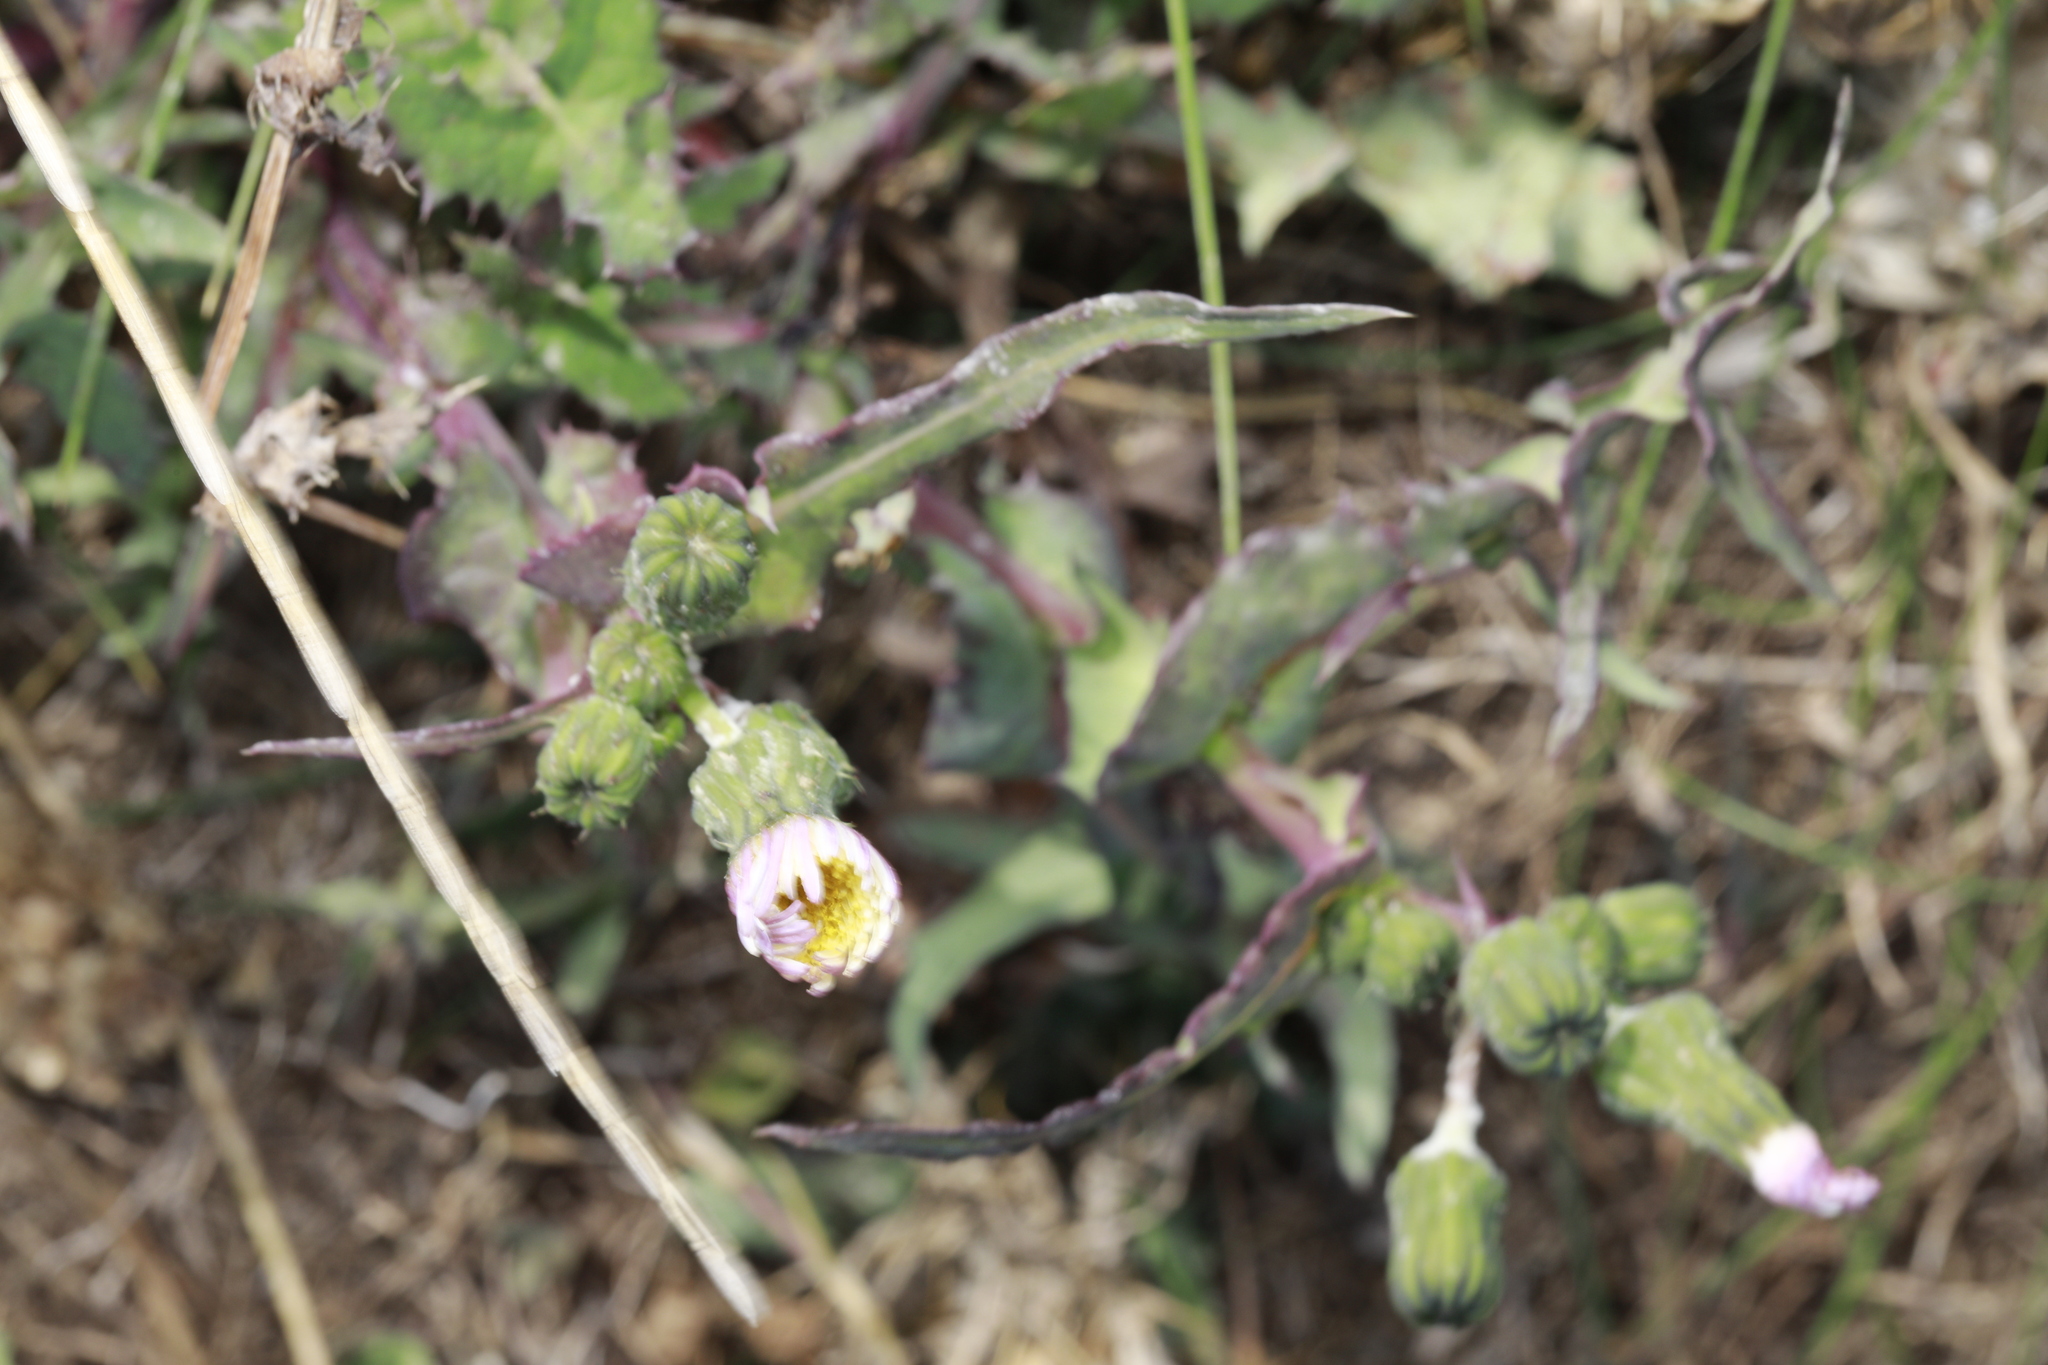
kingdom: Plantae
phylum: Tracheophyta
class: Magnoliopsida
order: Asterales
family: Asteraceae
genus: Sonchus
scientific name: Sonchus oleraceus
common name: Common sowthistle
